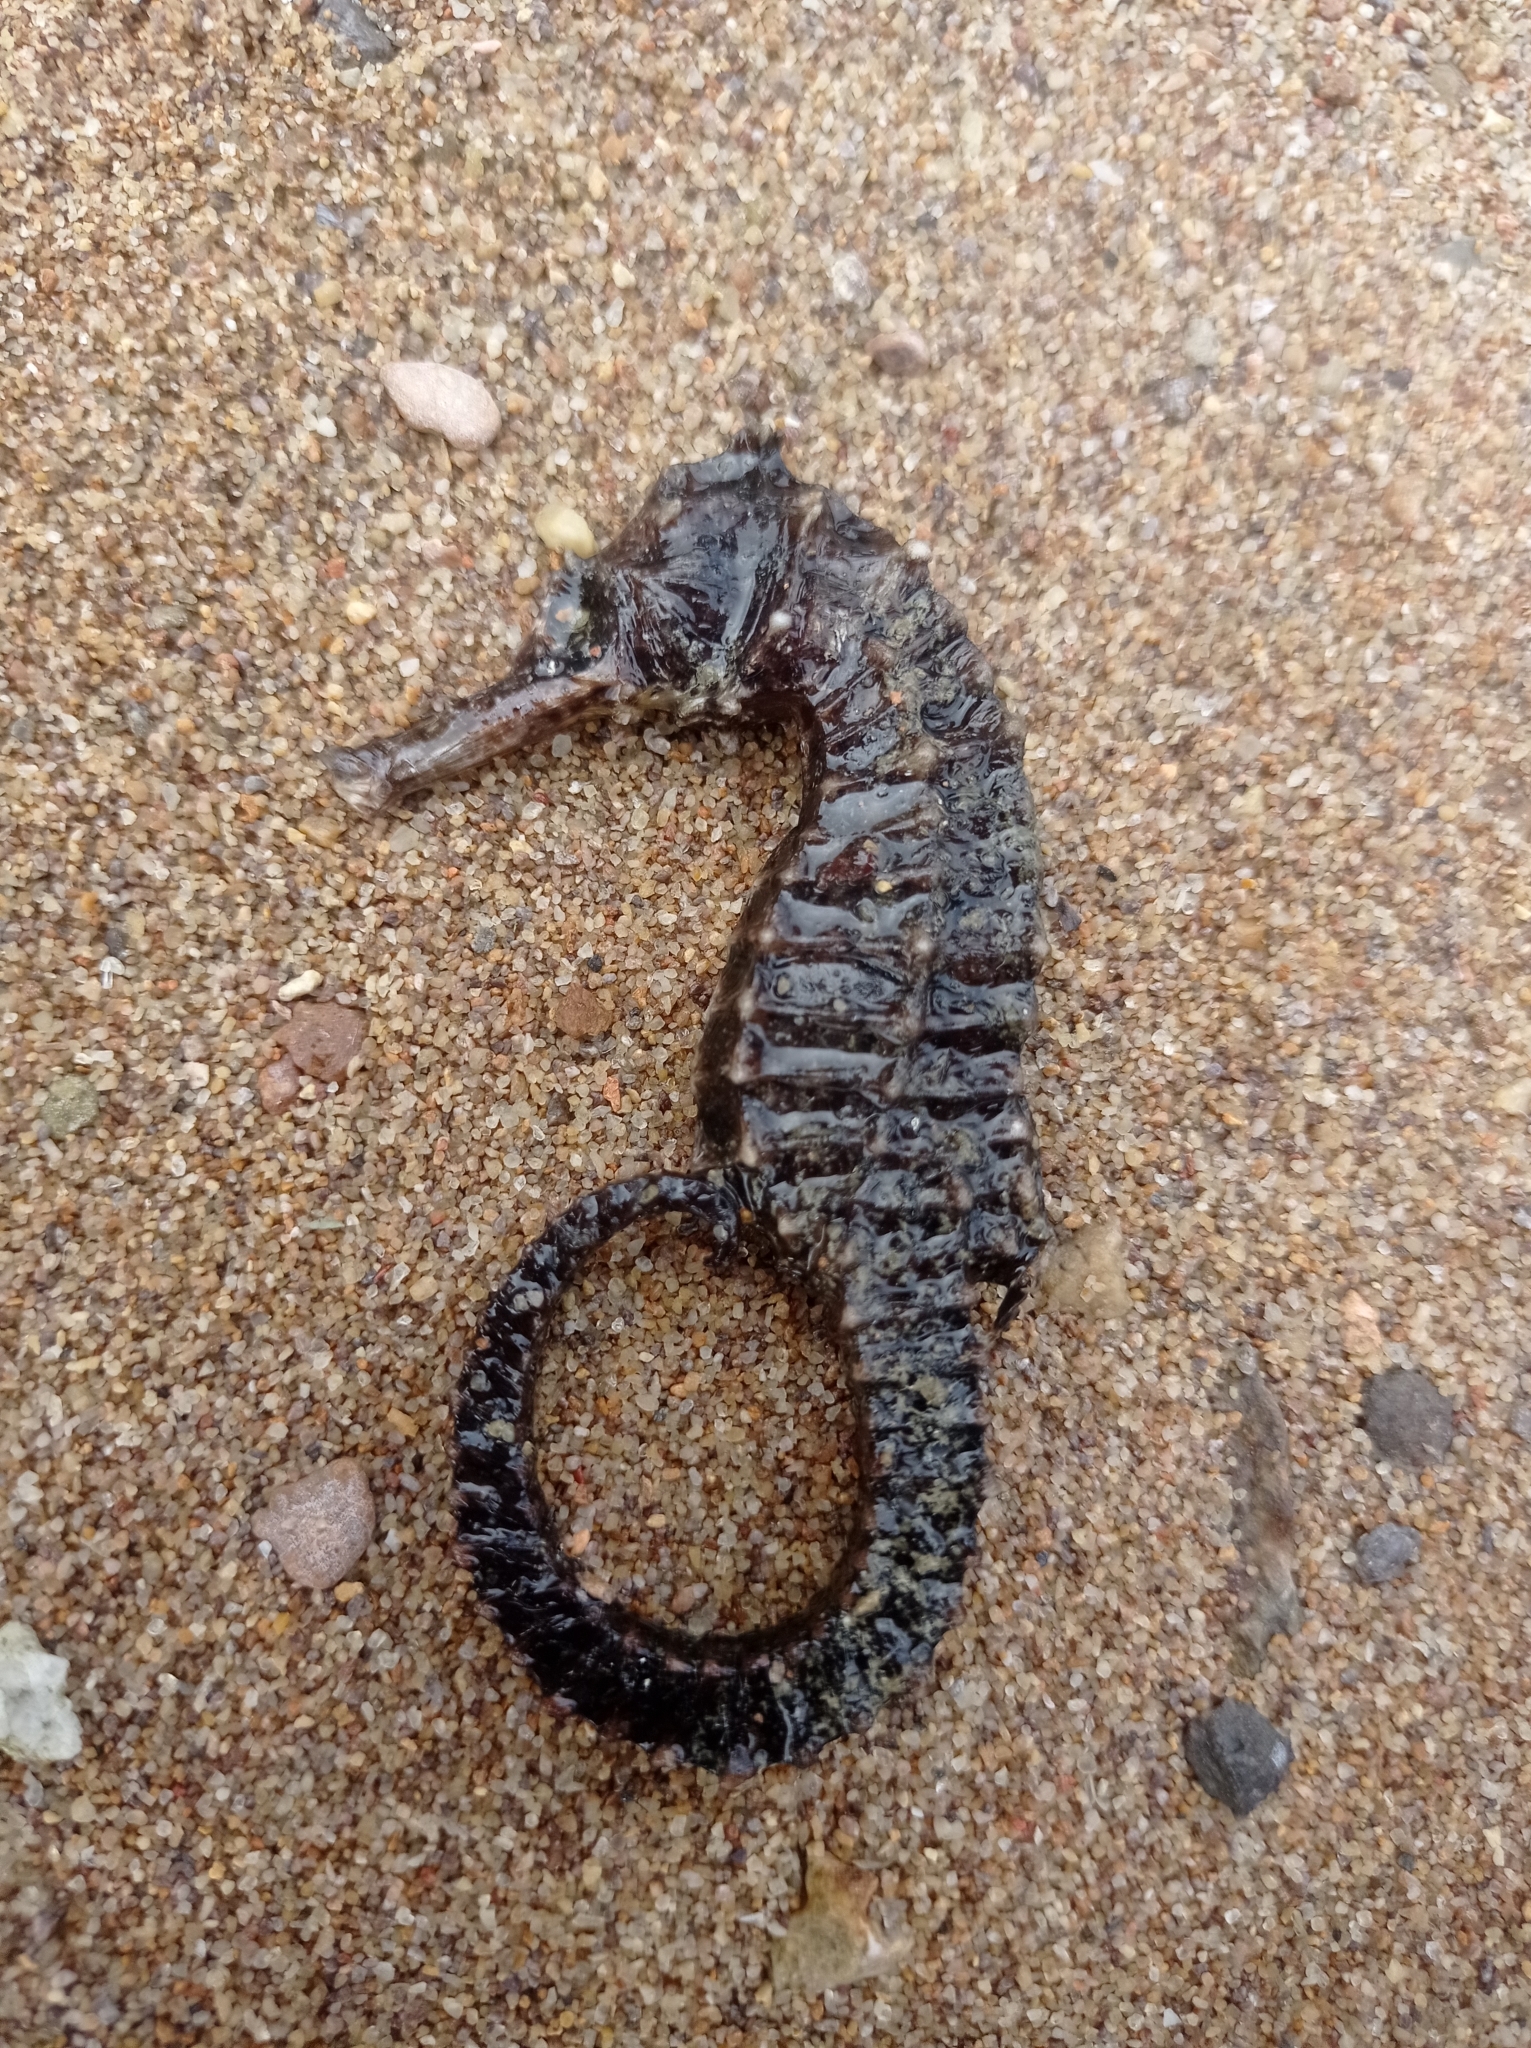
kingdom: Animalia
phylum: Chordata
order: Syngnathiformes
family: Syngnathidae
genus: Hippocampus
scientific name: Hippocampus kuda
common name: Spotted seahorse
